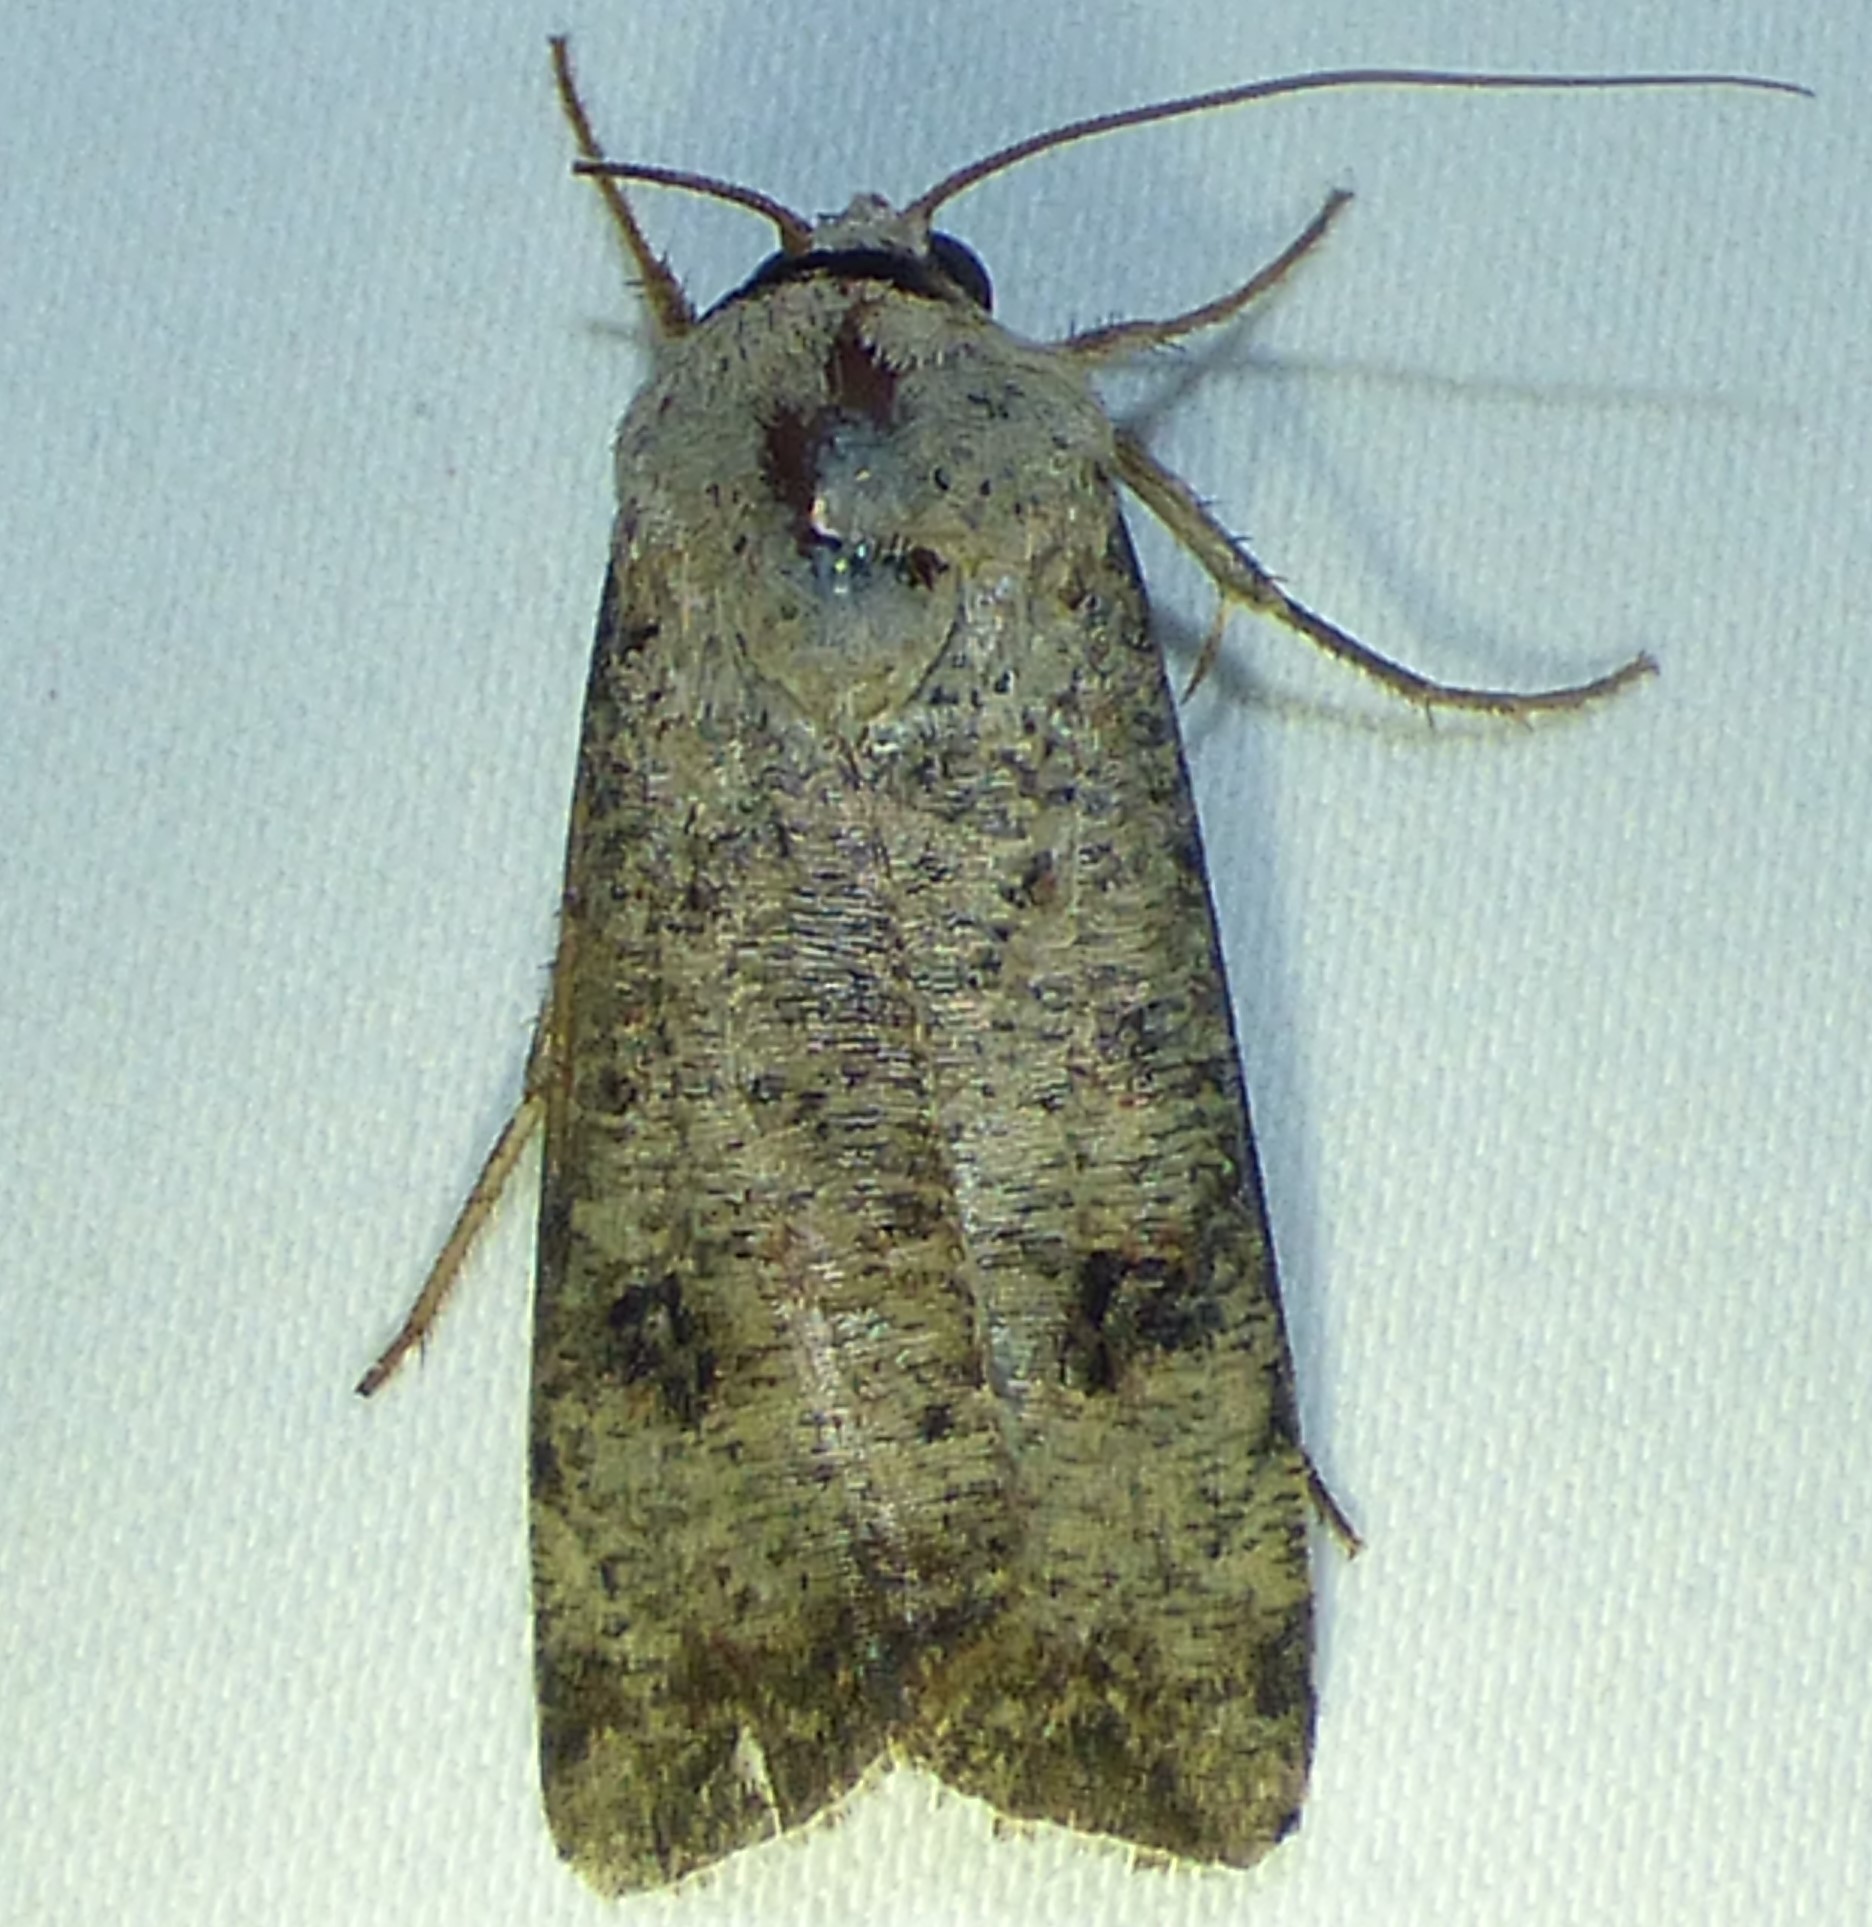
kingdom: Animalia
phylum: Arthropoda
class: Insecta
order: Lepidoptera
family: Noctuidae
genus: Anicla
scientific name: Anicla infecta
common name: Green cutworm
